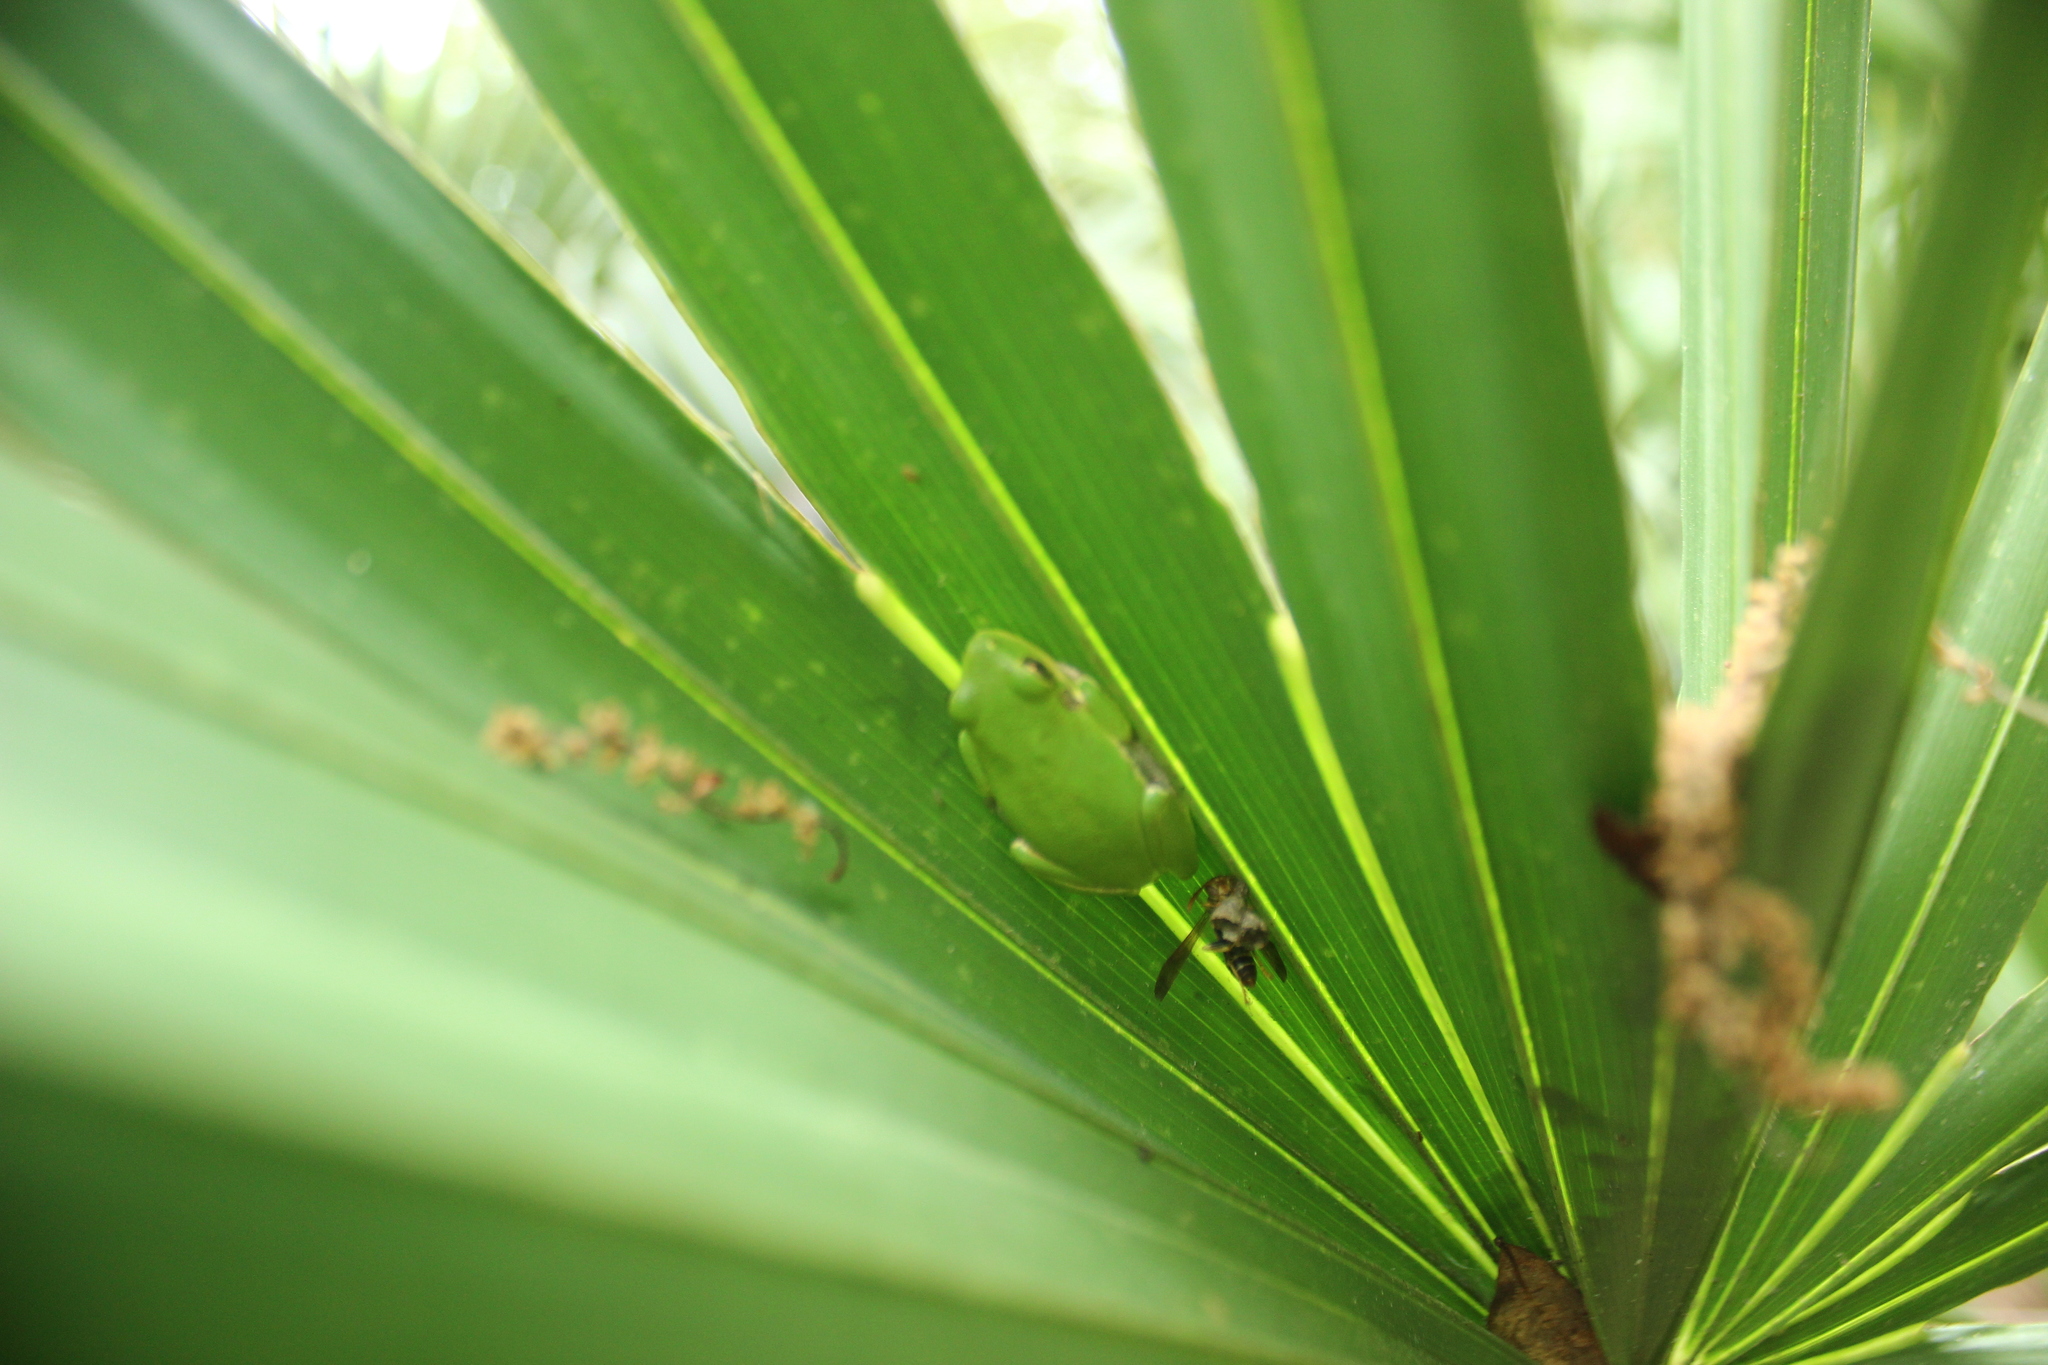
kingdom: Animalia
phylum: Chordata
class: Amphibia
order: Anura
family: Hylidae
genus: Dryophytes
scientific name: Dryophytes squirellus
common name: Squirrel treefrog
